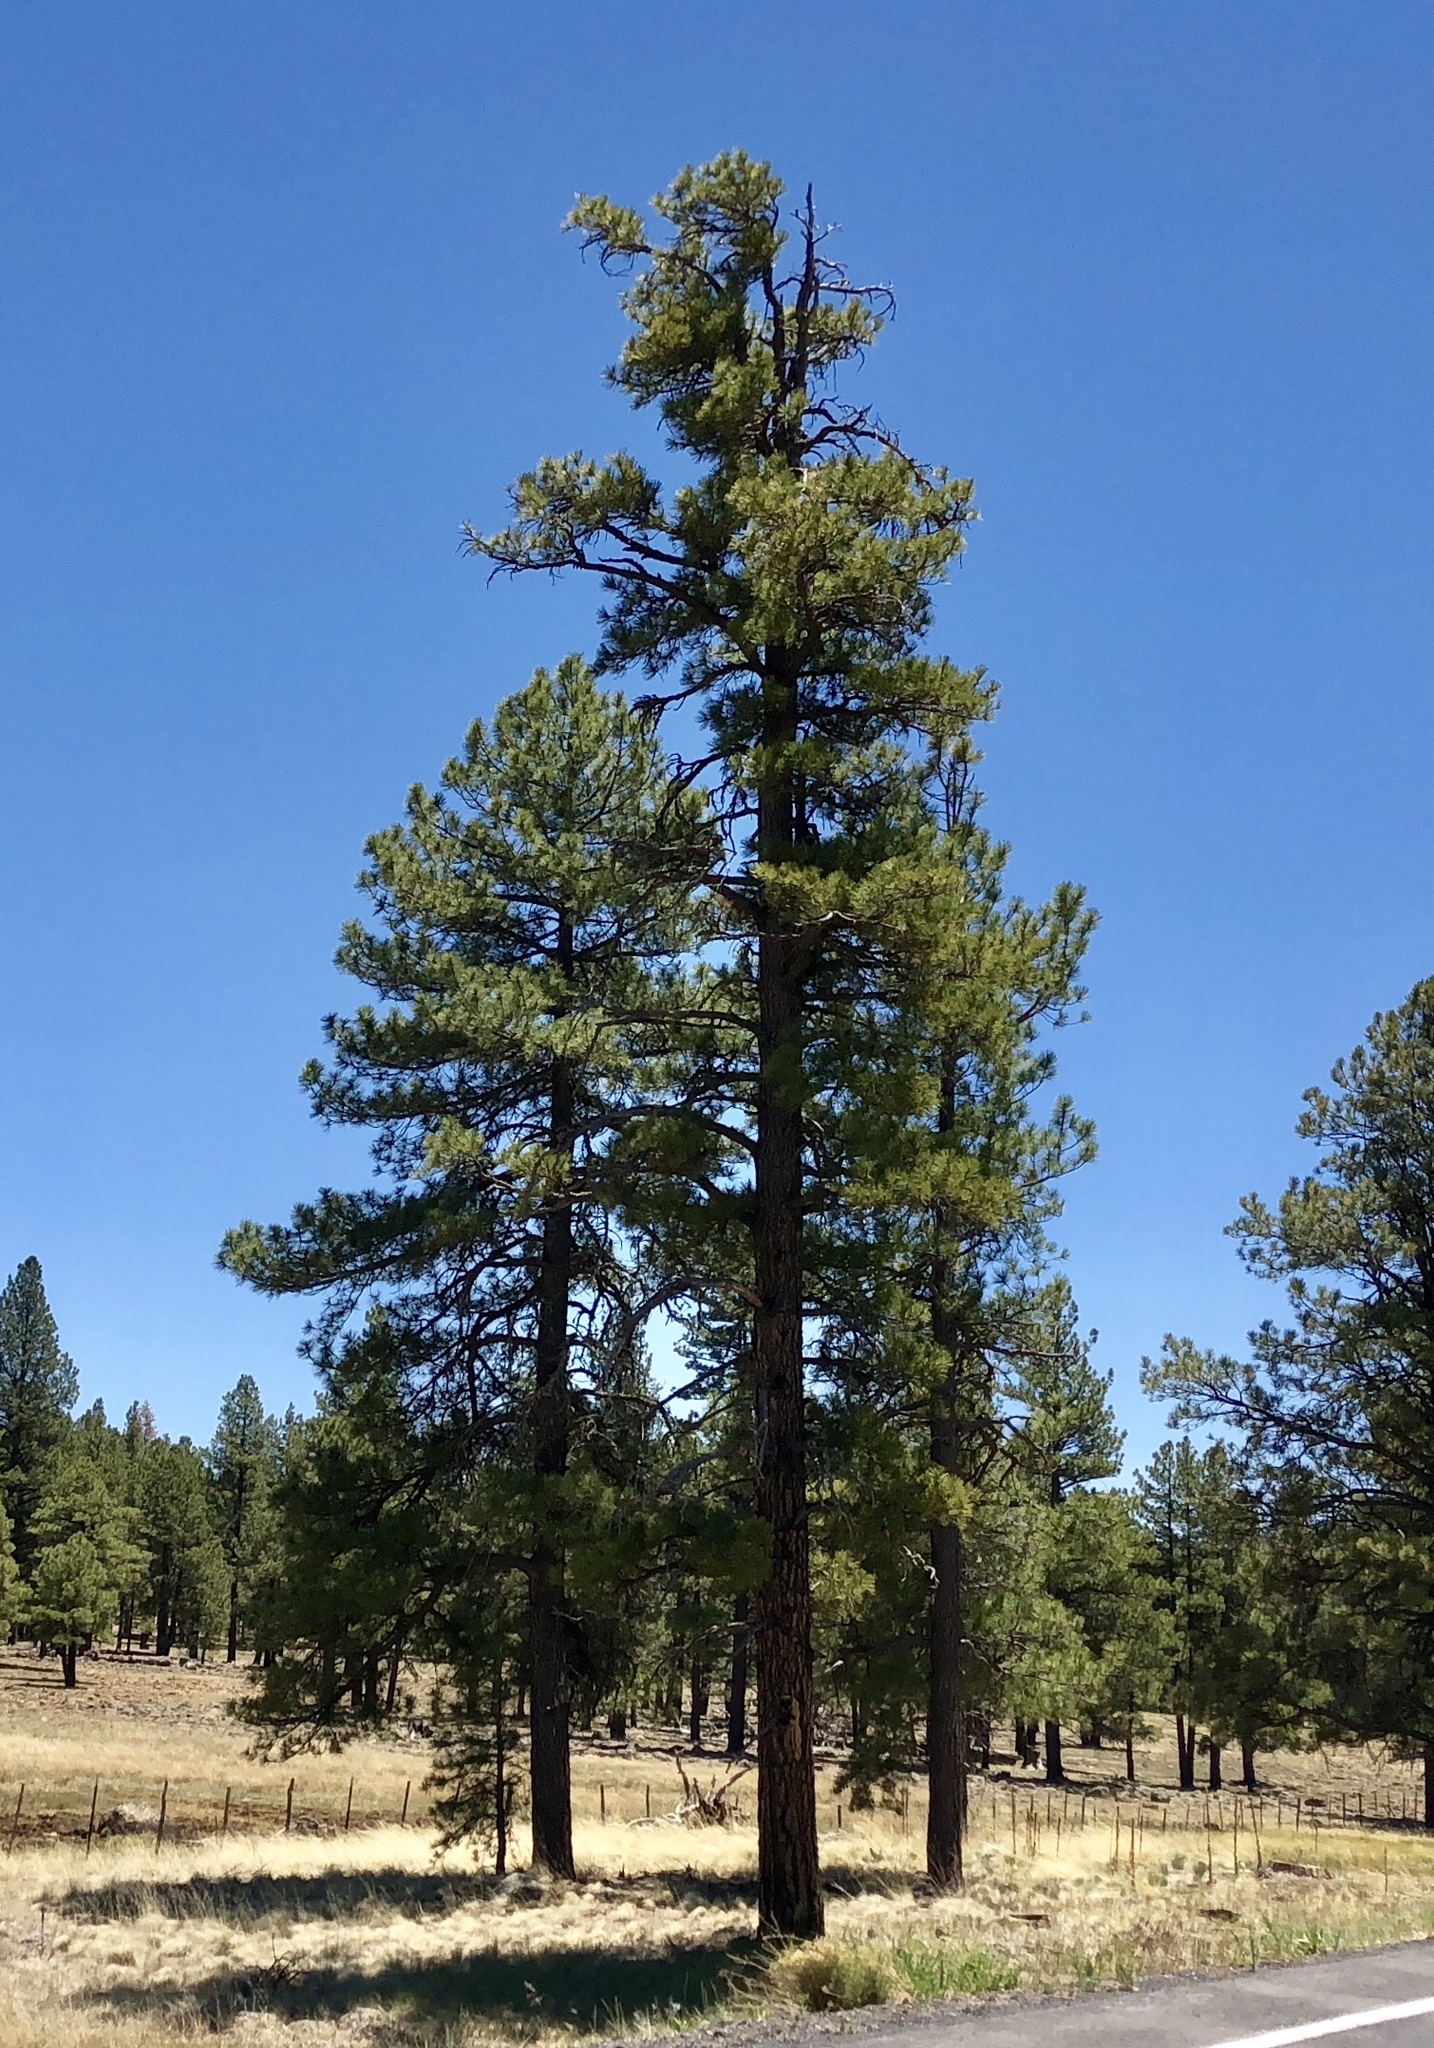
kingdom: Plantae
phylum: Tracheophyta
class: Pinopsida
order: Pinales
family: Pinaceae
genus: Pinus
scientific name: Pinus ponderosa
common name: Western yellow-pine
